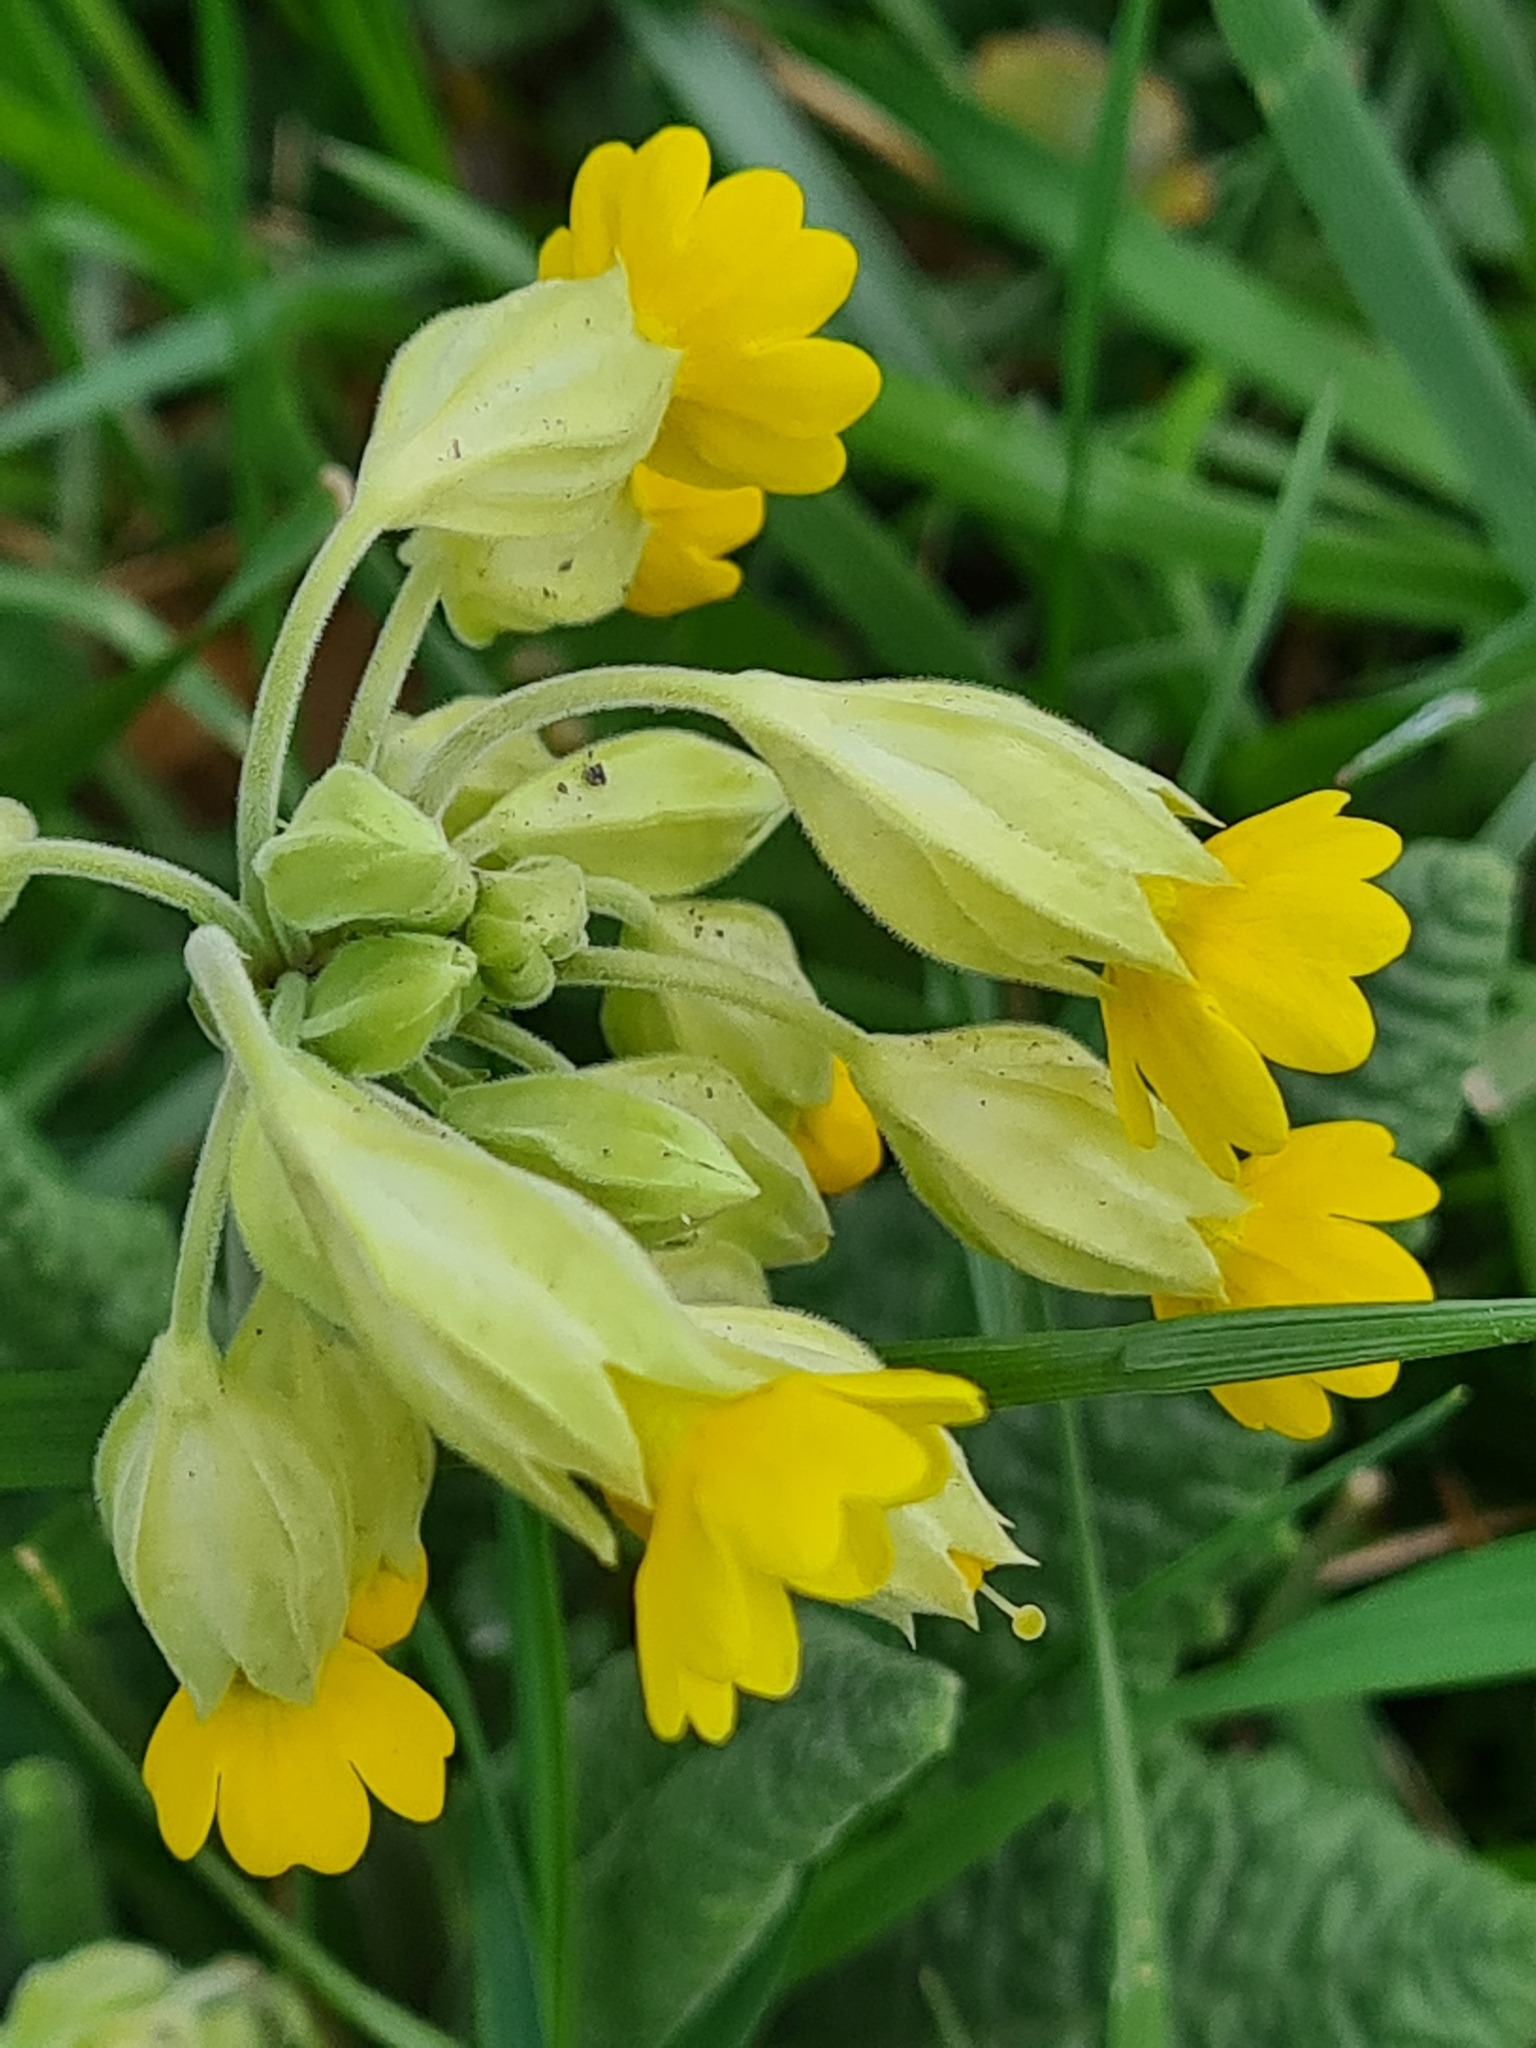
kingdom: Plantae
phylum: Tracheophyta
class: Magnoliopsida
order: Ericales
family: Primulaceae
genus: Primula
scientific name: Primula veris
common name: Cowslip
